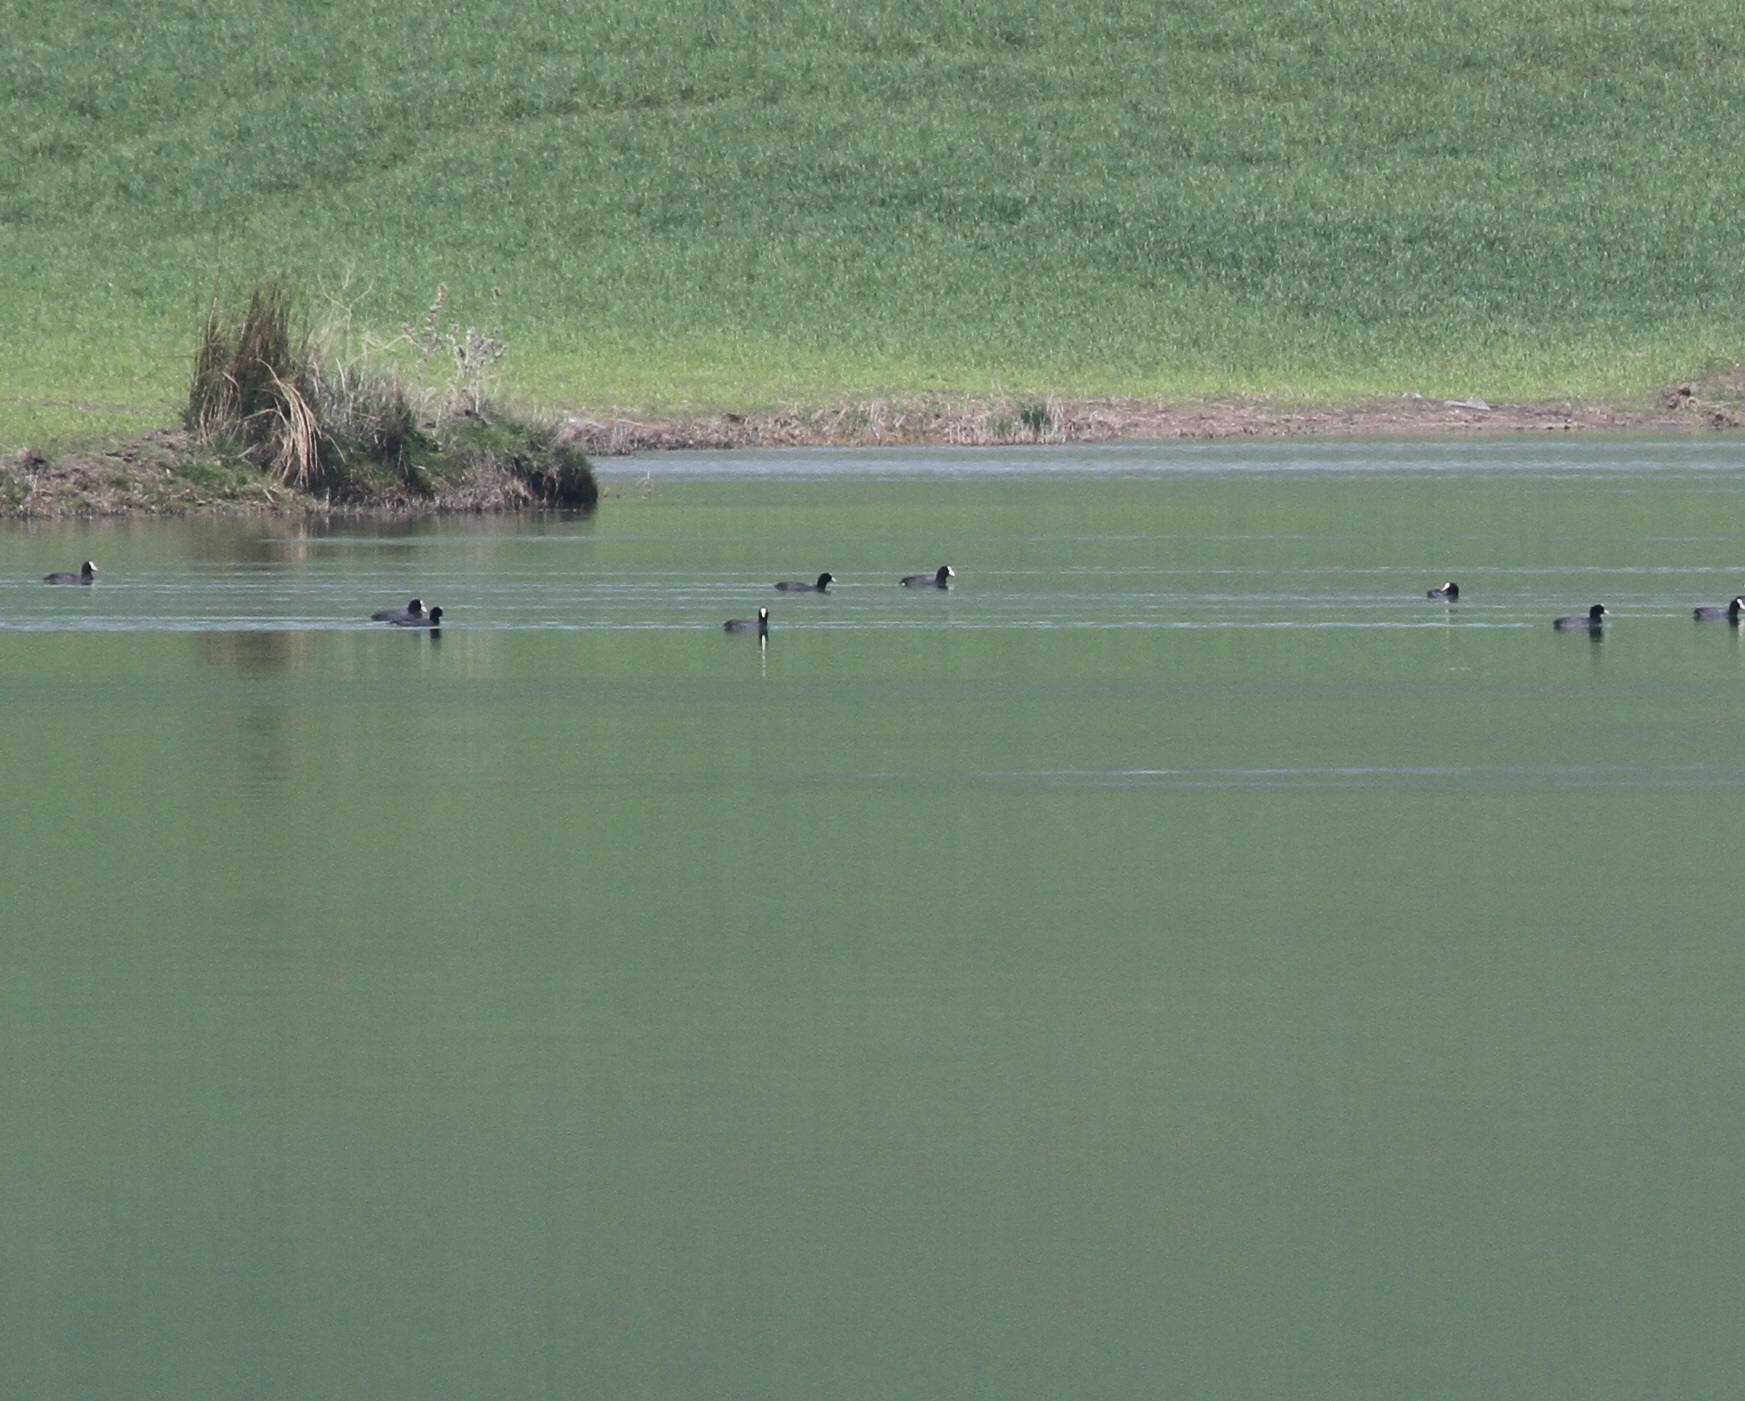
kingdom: Animalia
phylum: Chordata
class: Aves
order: Gruiformes
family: Rallidae
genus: Fulica
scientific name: Fulica atra
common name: Eurasian coot
